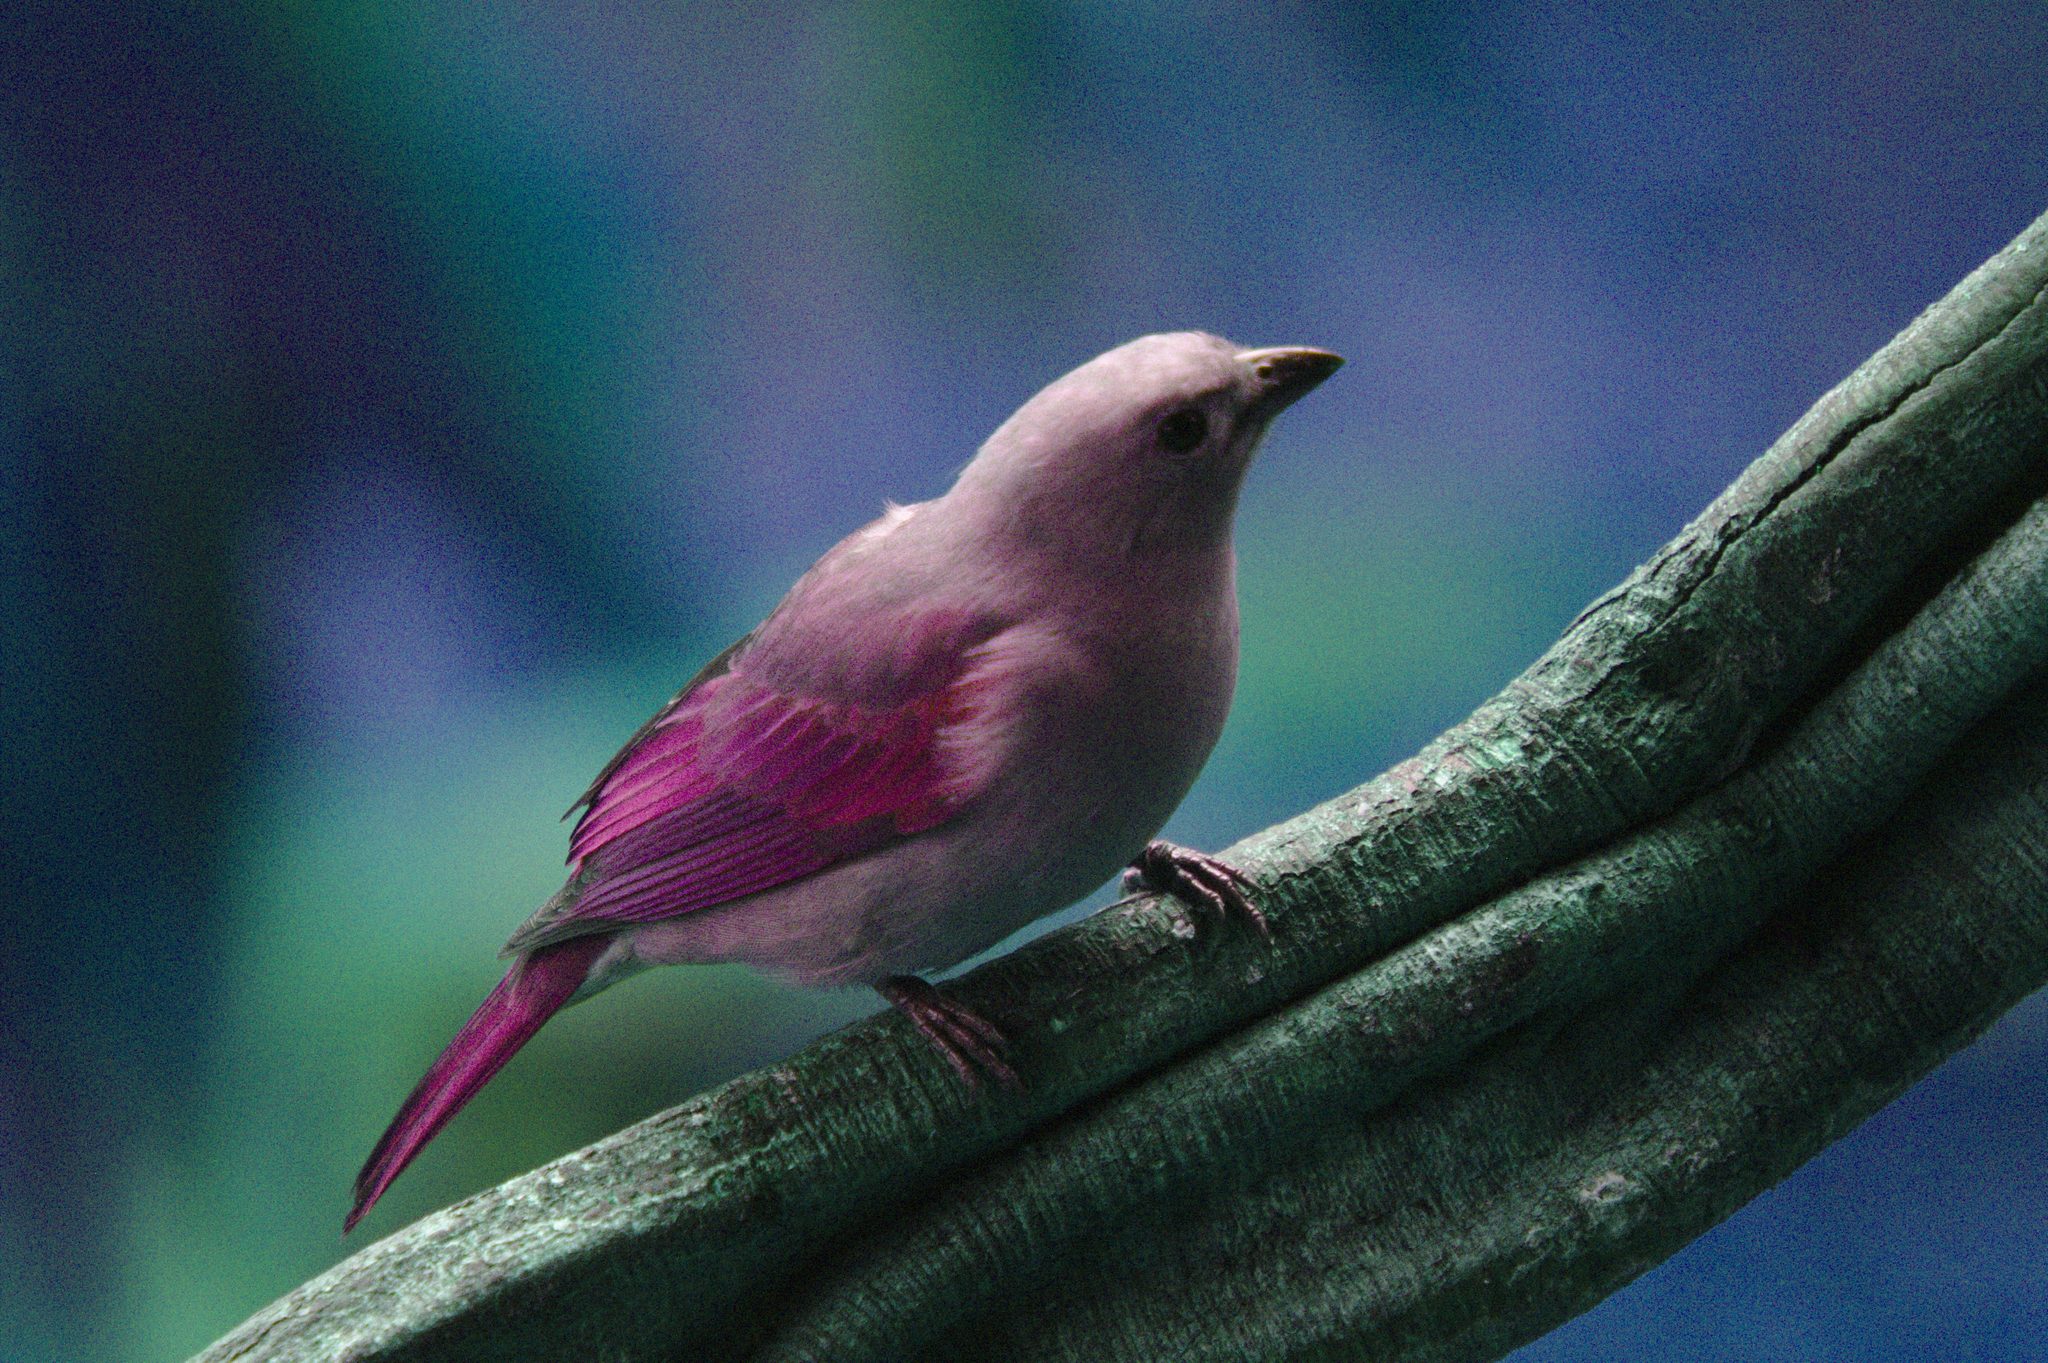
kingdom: Animalia
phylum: Chordata
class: Aves
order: Passeriformes
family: Thraupidae
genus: Thraupis
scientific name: Thraupis episcopus
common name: Blue-grey tanager
